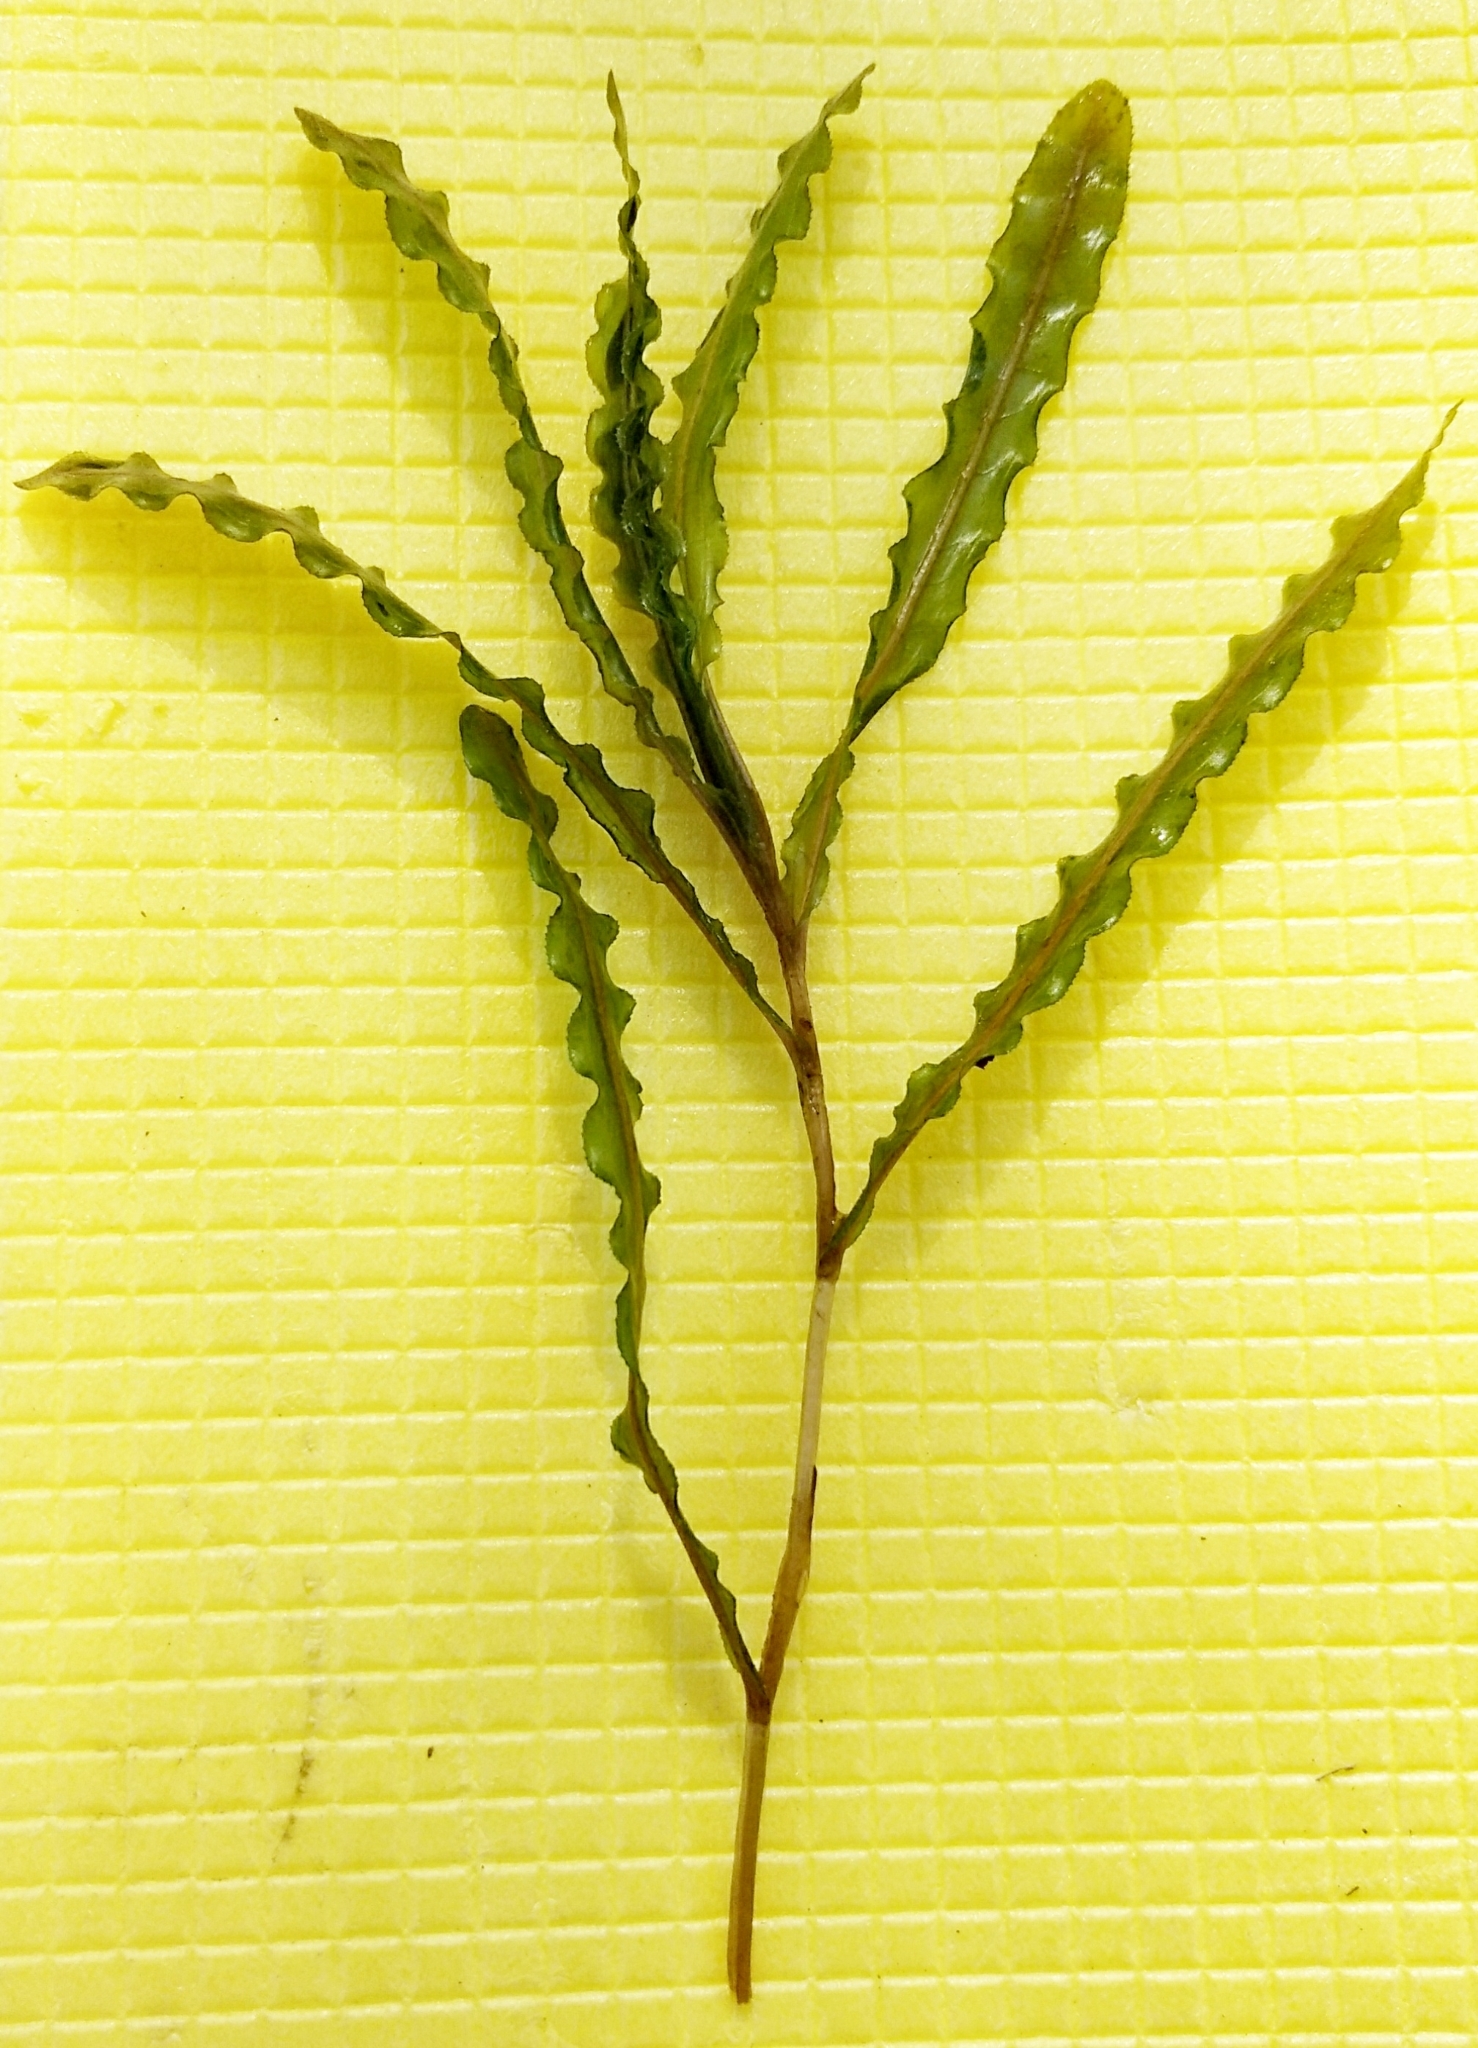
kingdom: Plantae
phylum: Tracheophyta
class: Liliopsida
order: Alismatales
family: Potamogetonaceae
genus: Potamogeton
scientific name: Potamogeton crispus
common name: Curled pondweed
